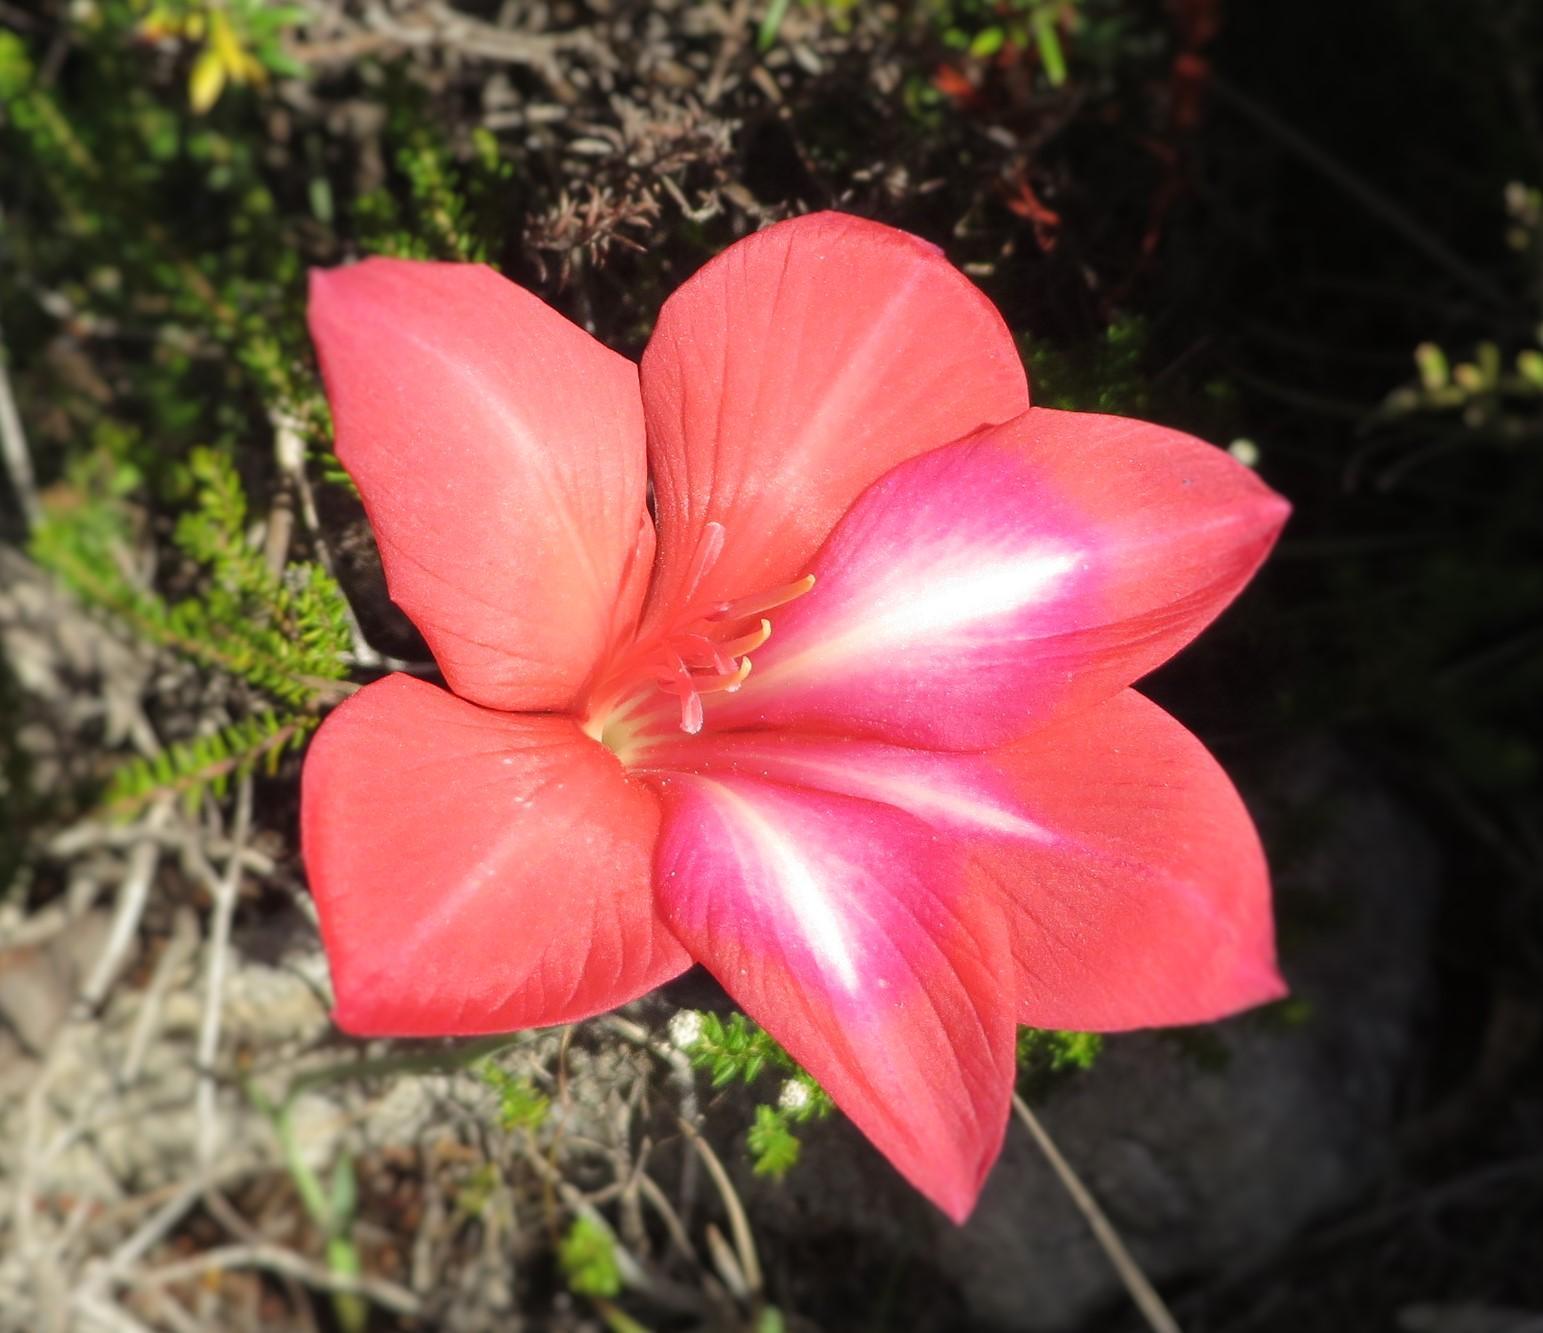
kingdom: Plantae
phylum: Tracheophyta
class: Liliopsida
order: Asparagales
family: Iridaceae
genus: Gladiolus
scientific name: Gladiolus carmineus
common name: Hermanus gladiolus
